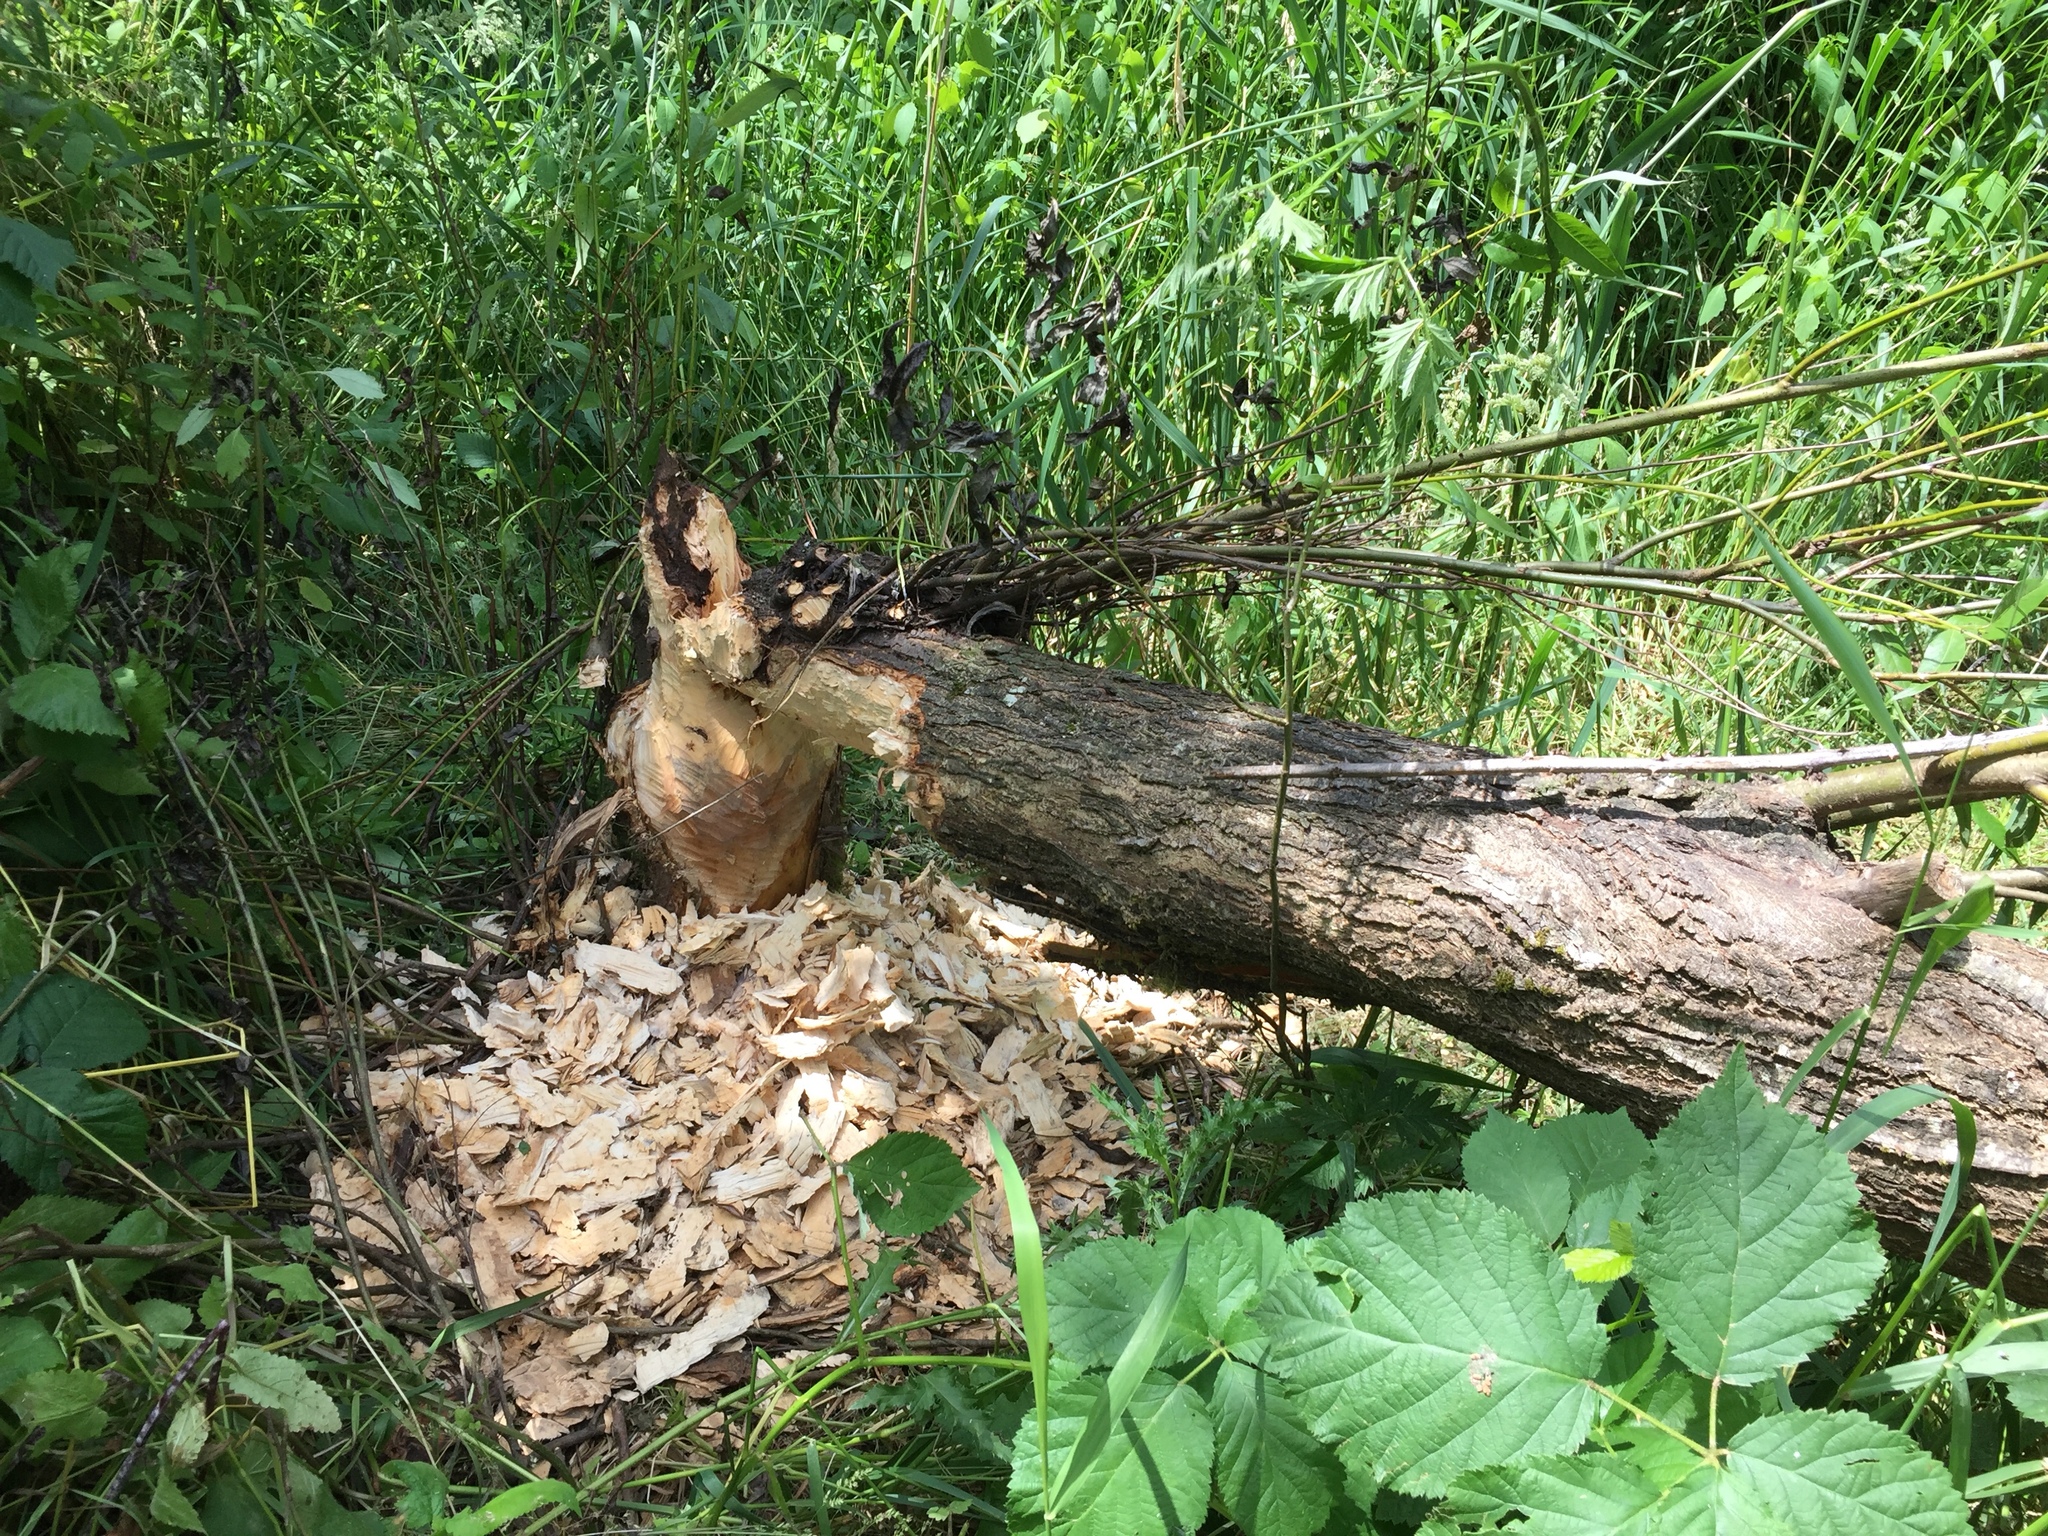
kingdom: Animalia
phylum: Chordata
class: Mammalia
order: Rodentia
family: Castoridae
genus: Castor
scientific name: Castor canadensis
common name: American beaver
